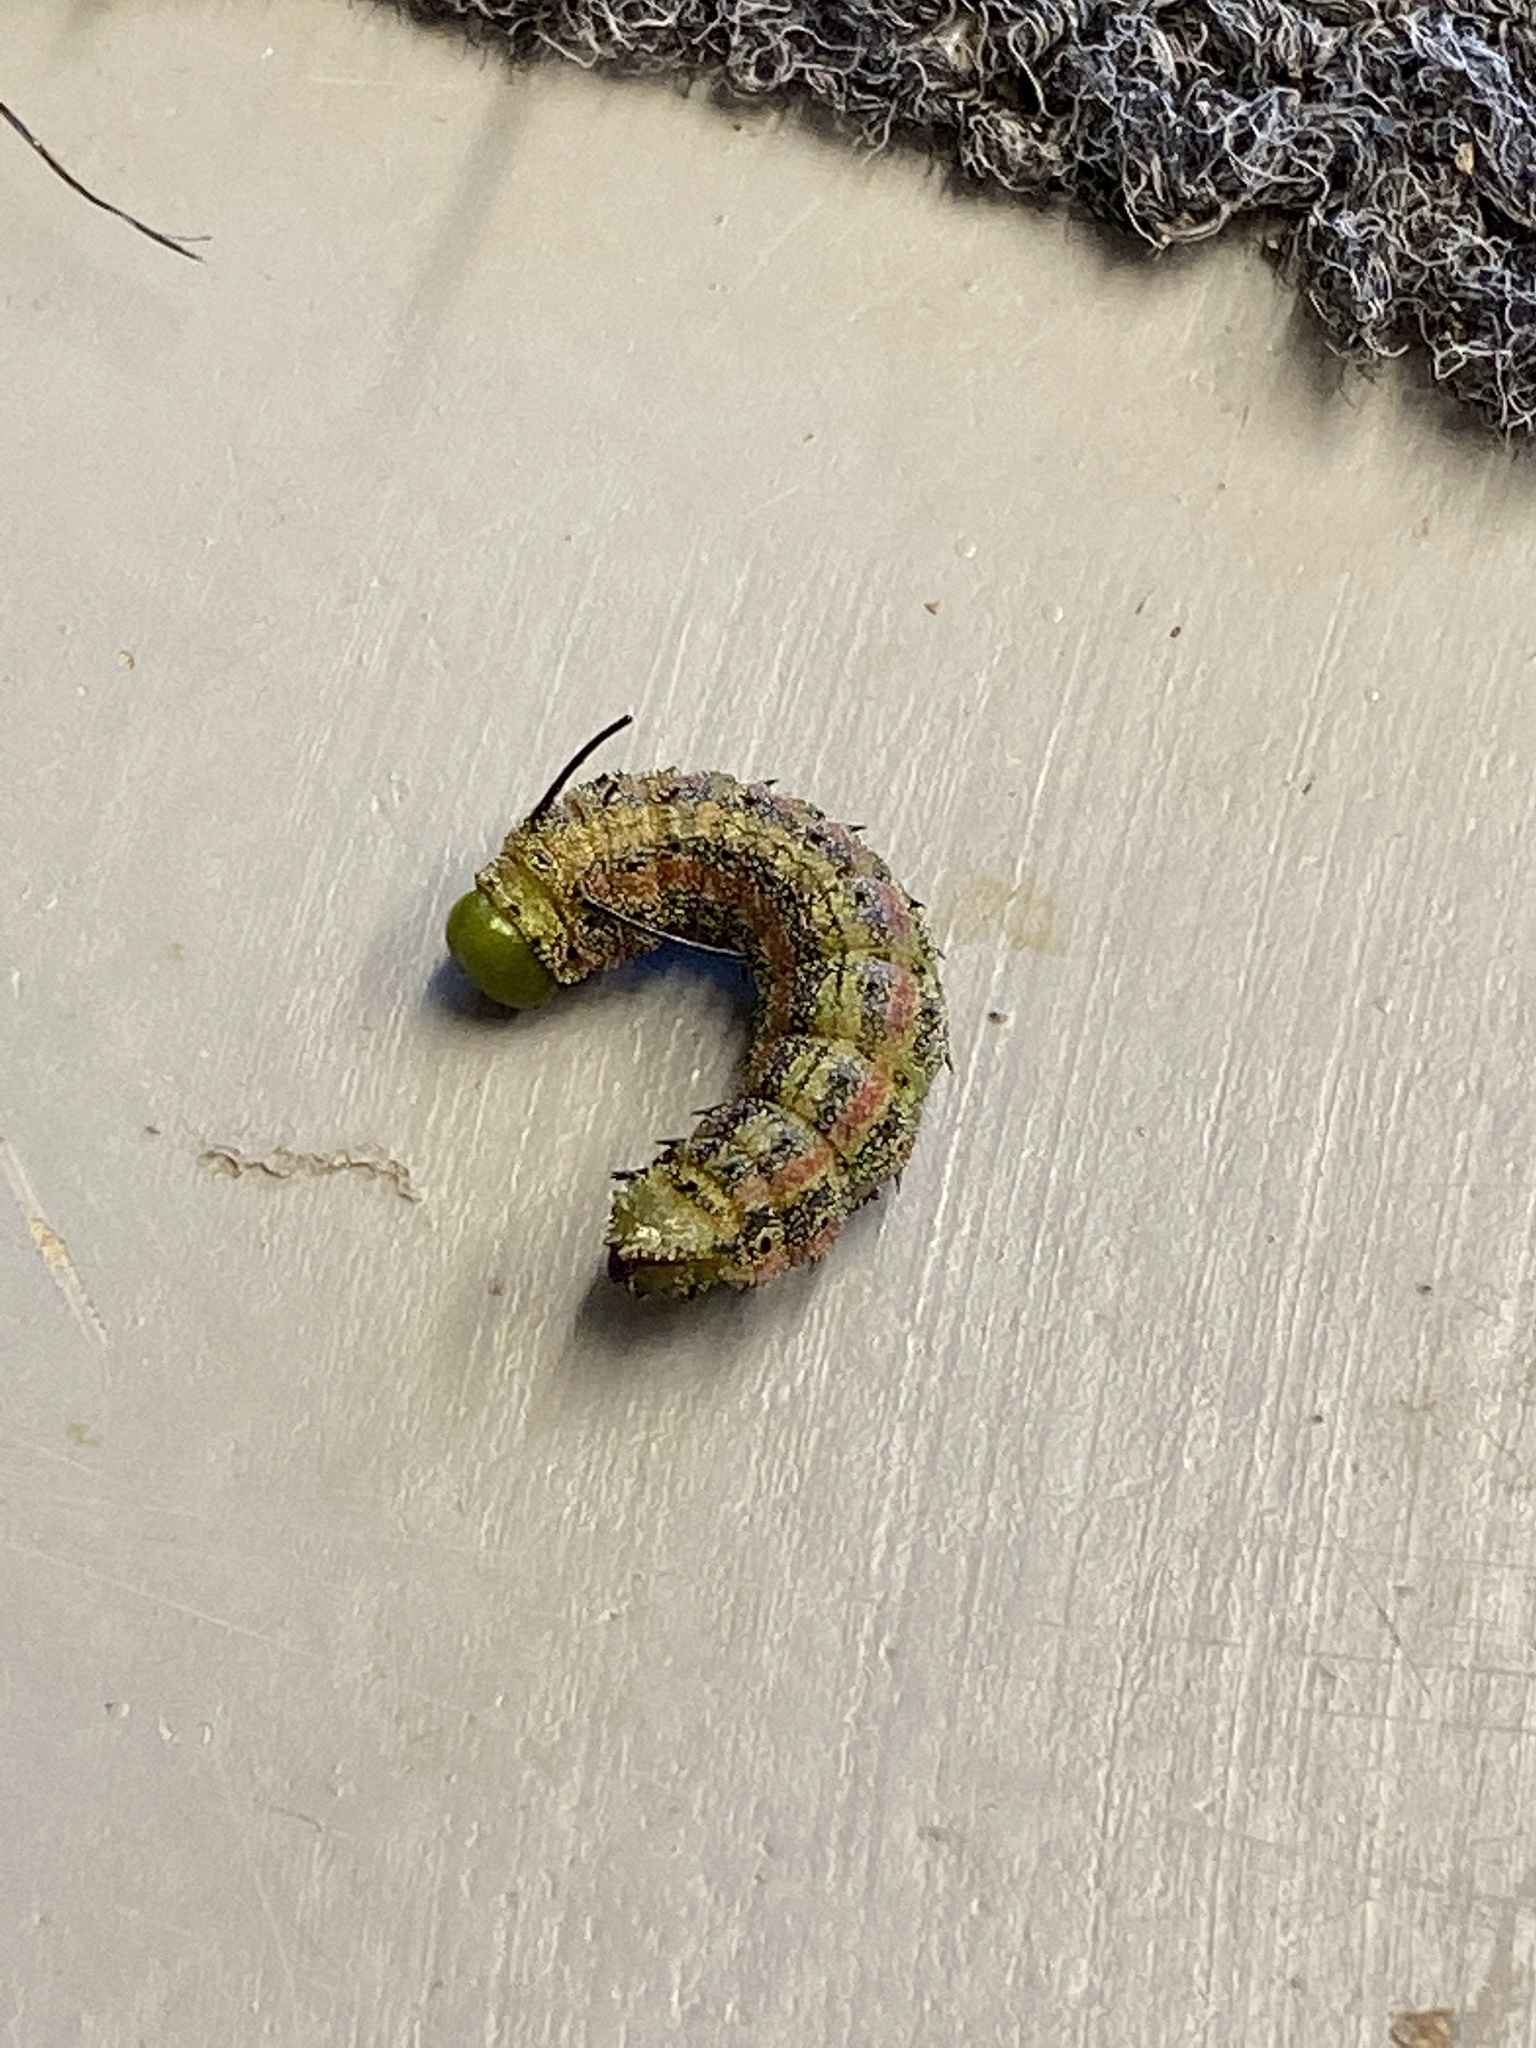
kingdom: Animalia
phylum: Arthropoda
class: Insecta
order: Lepidoptera
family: Saturniidae
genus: Anisota
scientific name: Anisota virginiensis
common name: Pink striped oakworm moth
